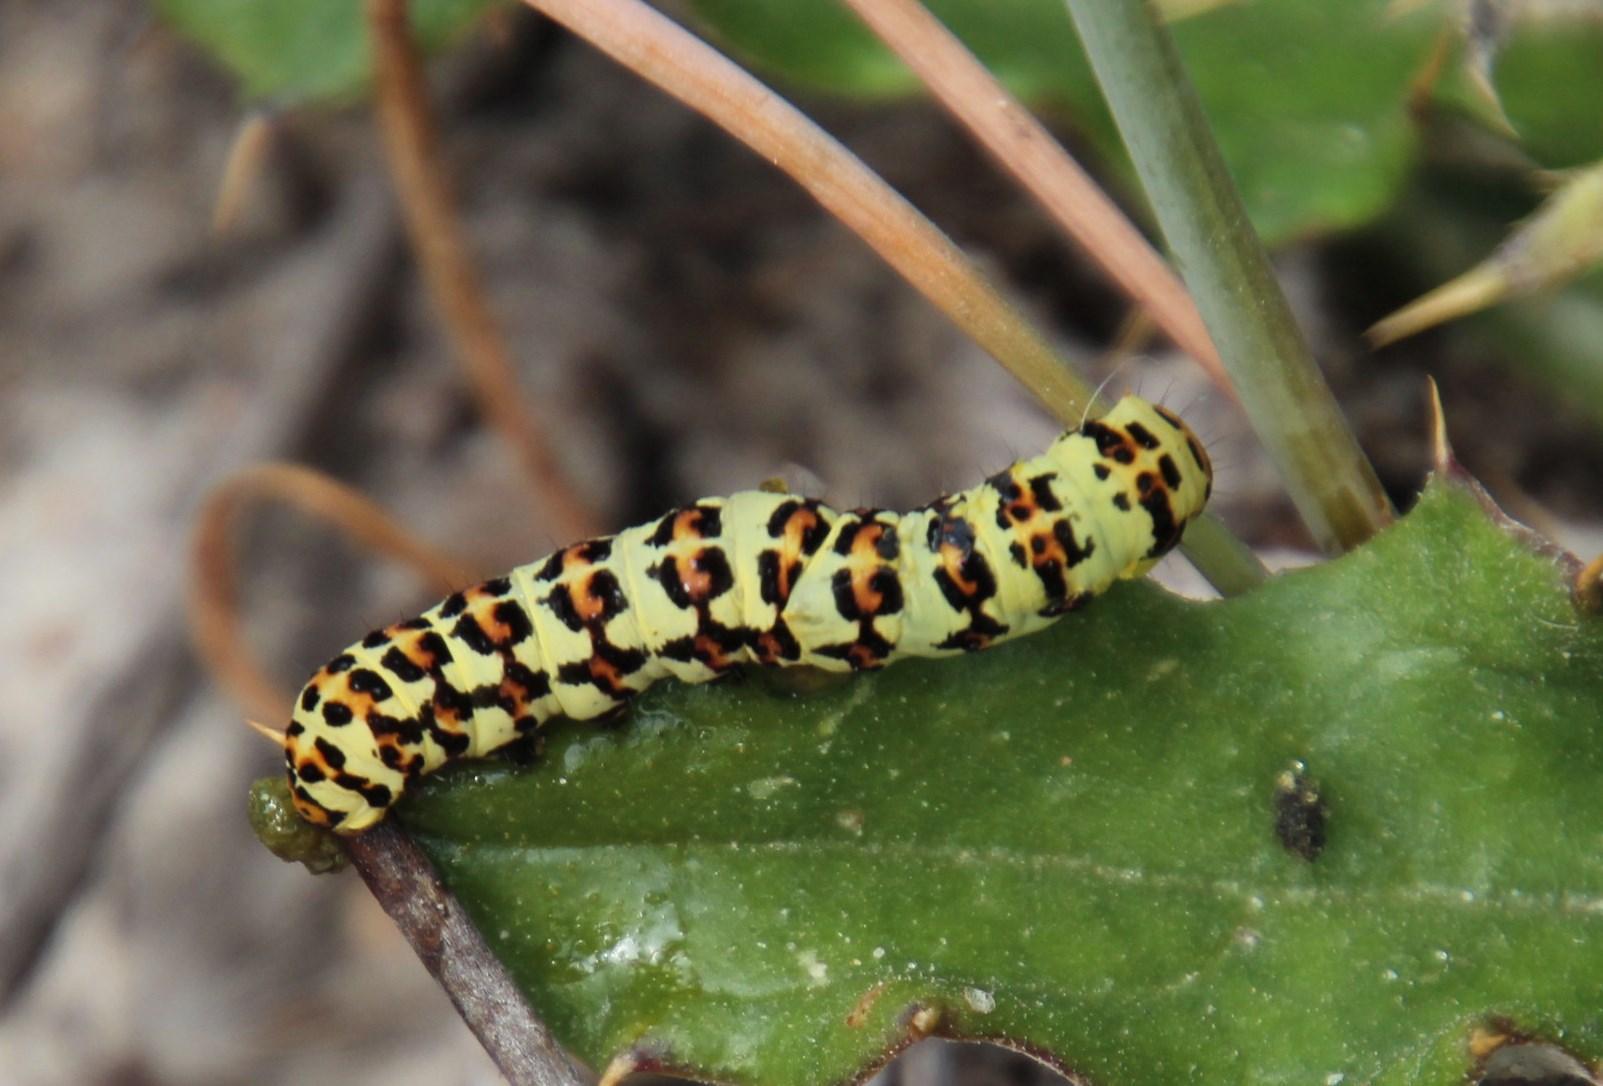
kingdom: Animalia
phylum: Arthropoda
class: Insecta
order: Lepidoptera
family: Noctuidae
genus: Diaphone
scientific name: Diaphone eumela
